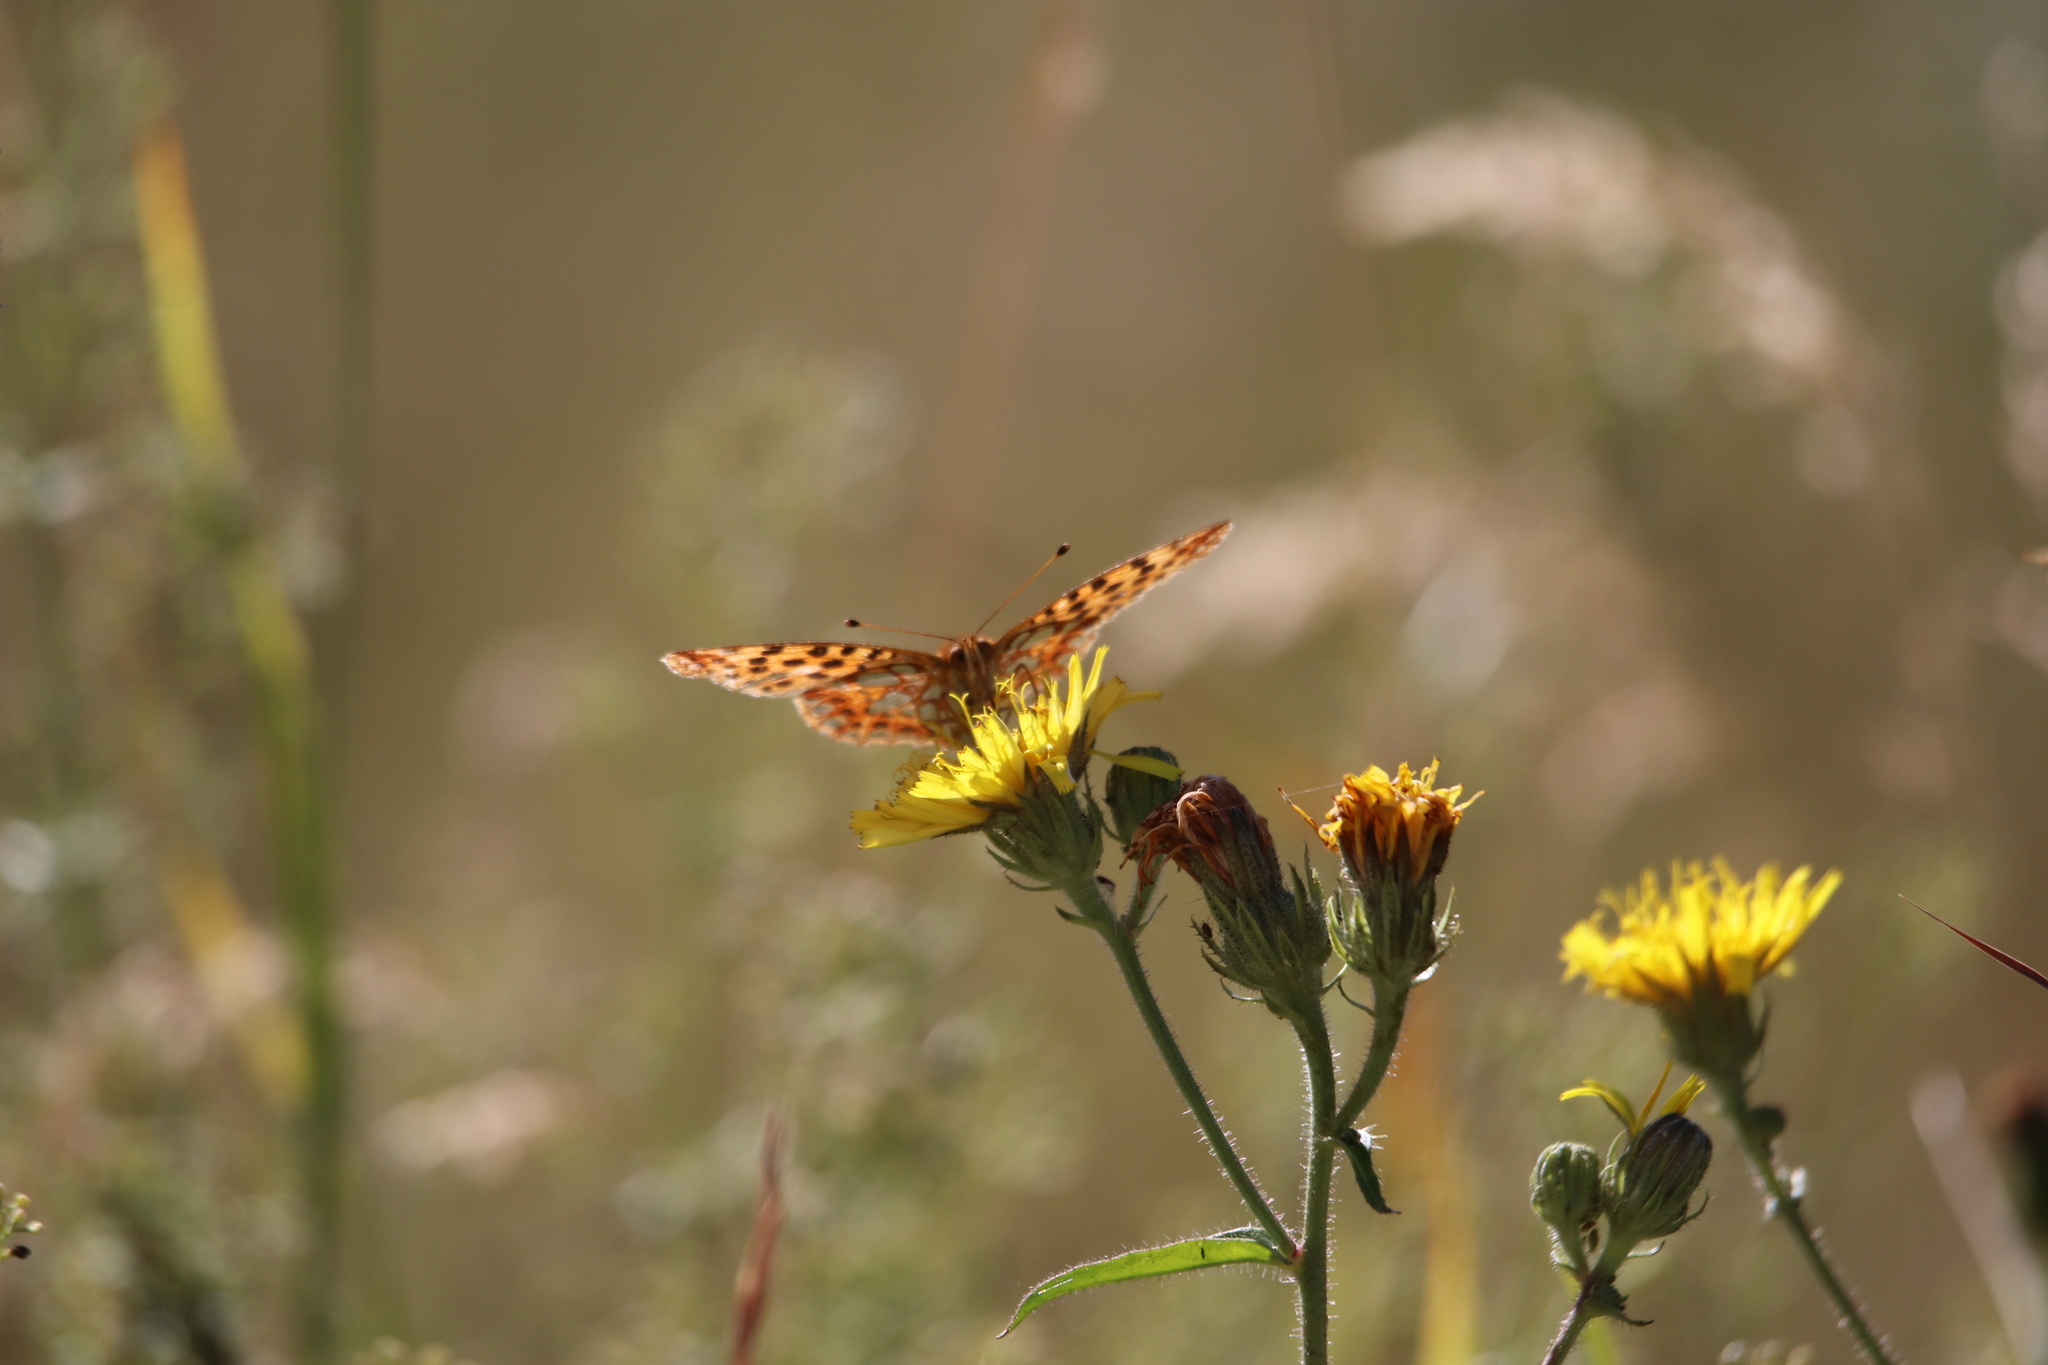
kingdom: Animalia
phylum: Arthropoda
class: Insecta
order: Lepidoptera
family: Nymphalidae
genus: Issoria
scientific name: Issoria lathonia
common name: Queen of spain fritillary
